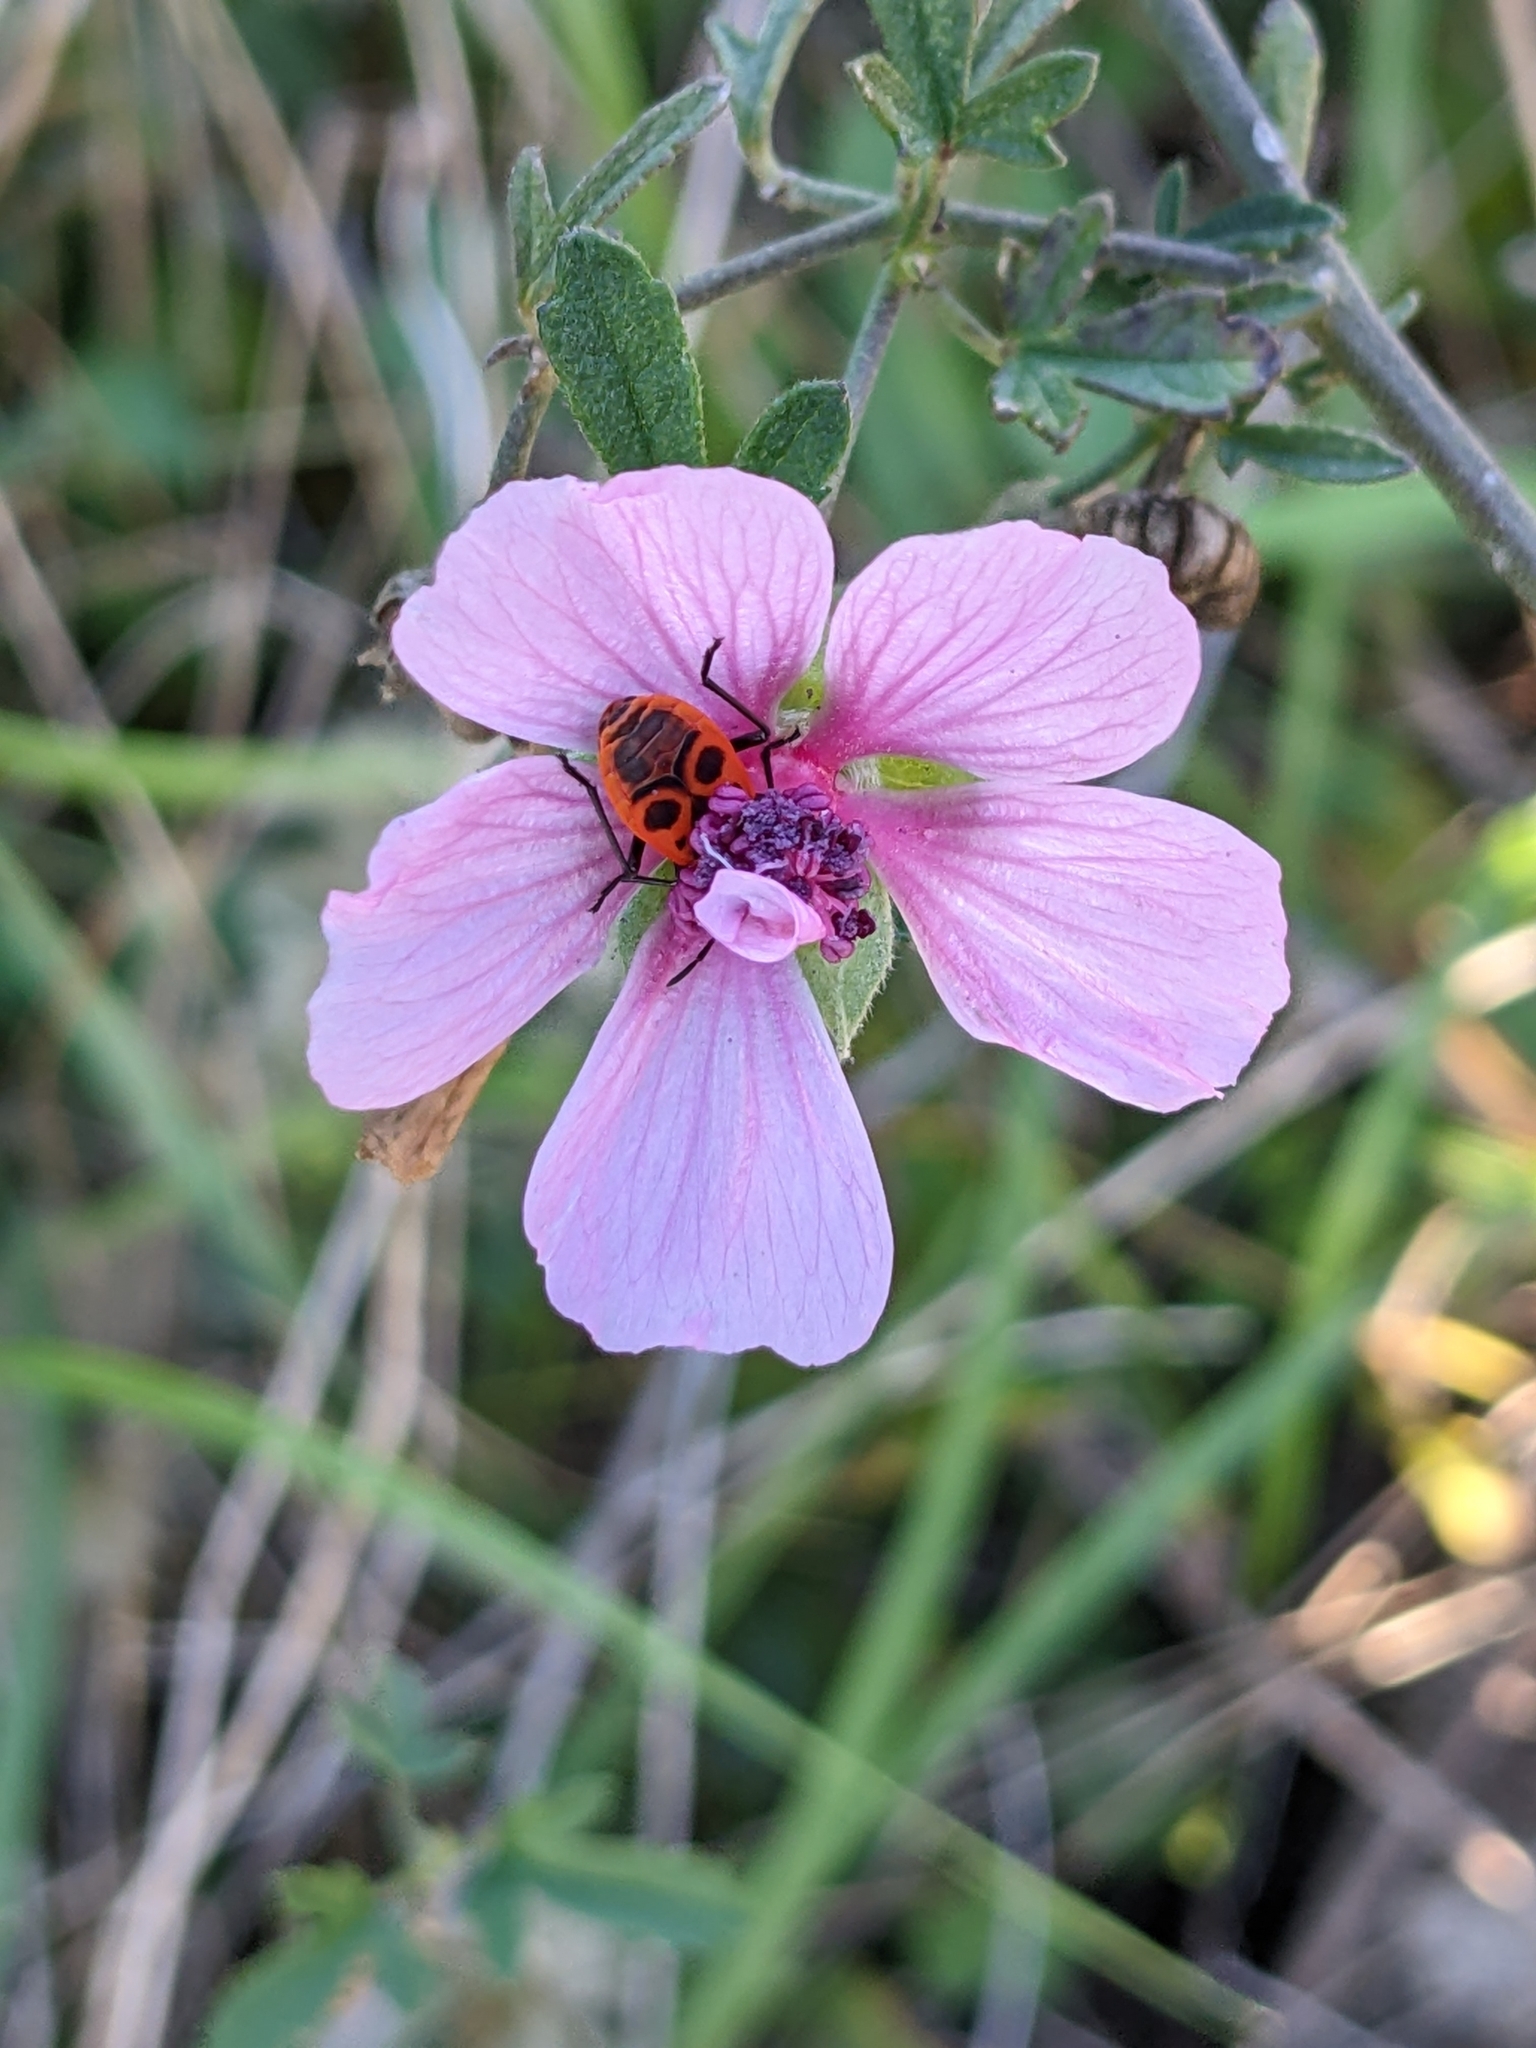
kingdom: Plantae
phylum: Tracheophyta
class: Magnoliopsida
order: Malvales
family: Malvaceae
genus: Althaea
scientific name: Althaea cannabina
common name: Palm-leaf marshmallow
